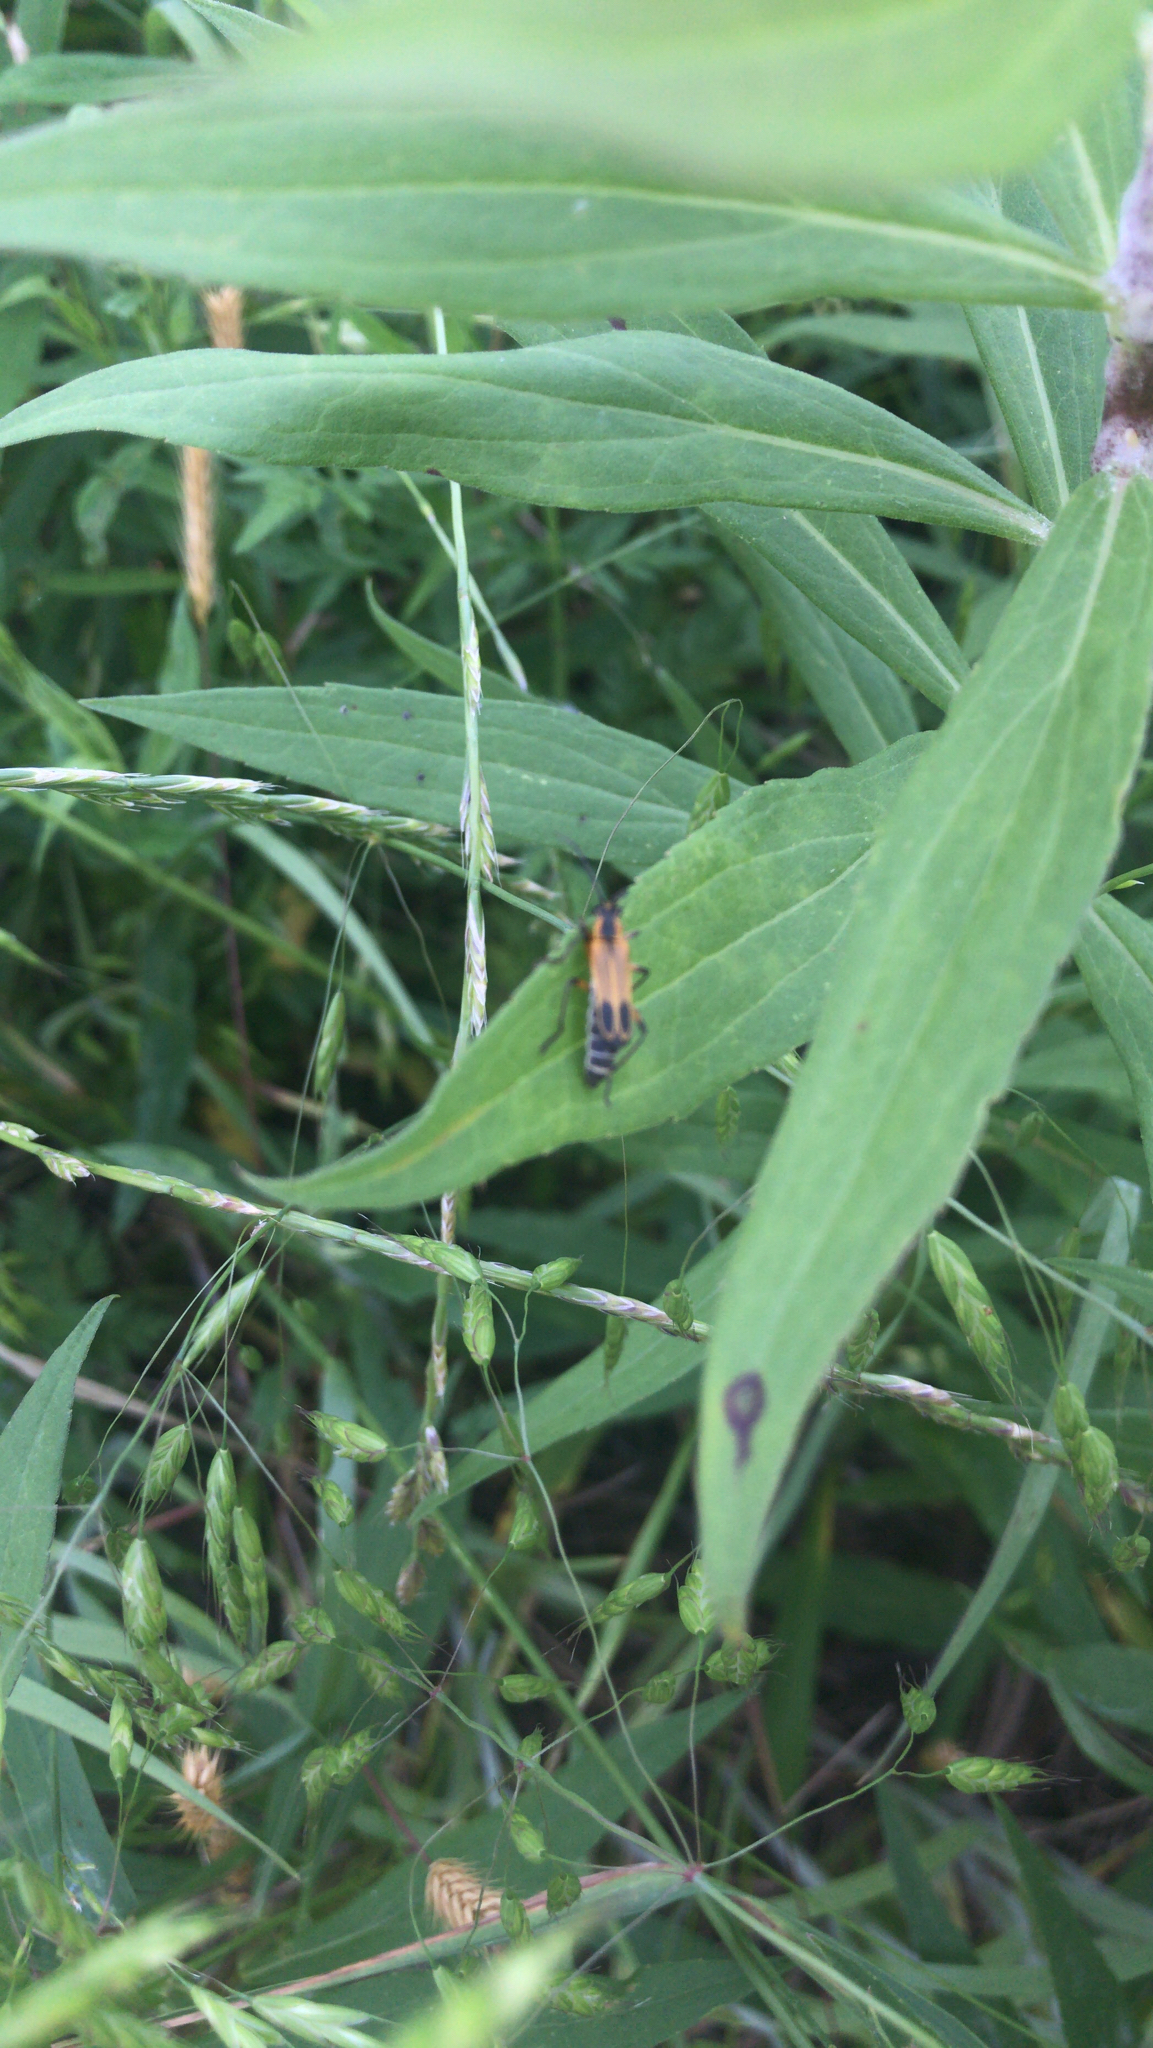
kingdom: Animalia
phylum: Arthropoda
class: Insecta
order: Coleoptera
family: Cantharidae
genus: Chauliognathus
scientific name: Chauliognathus marginatus
